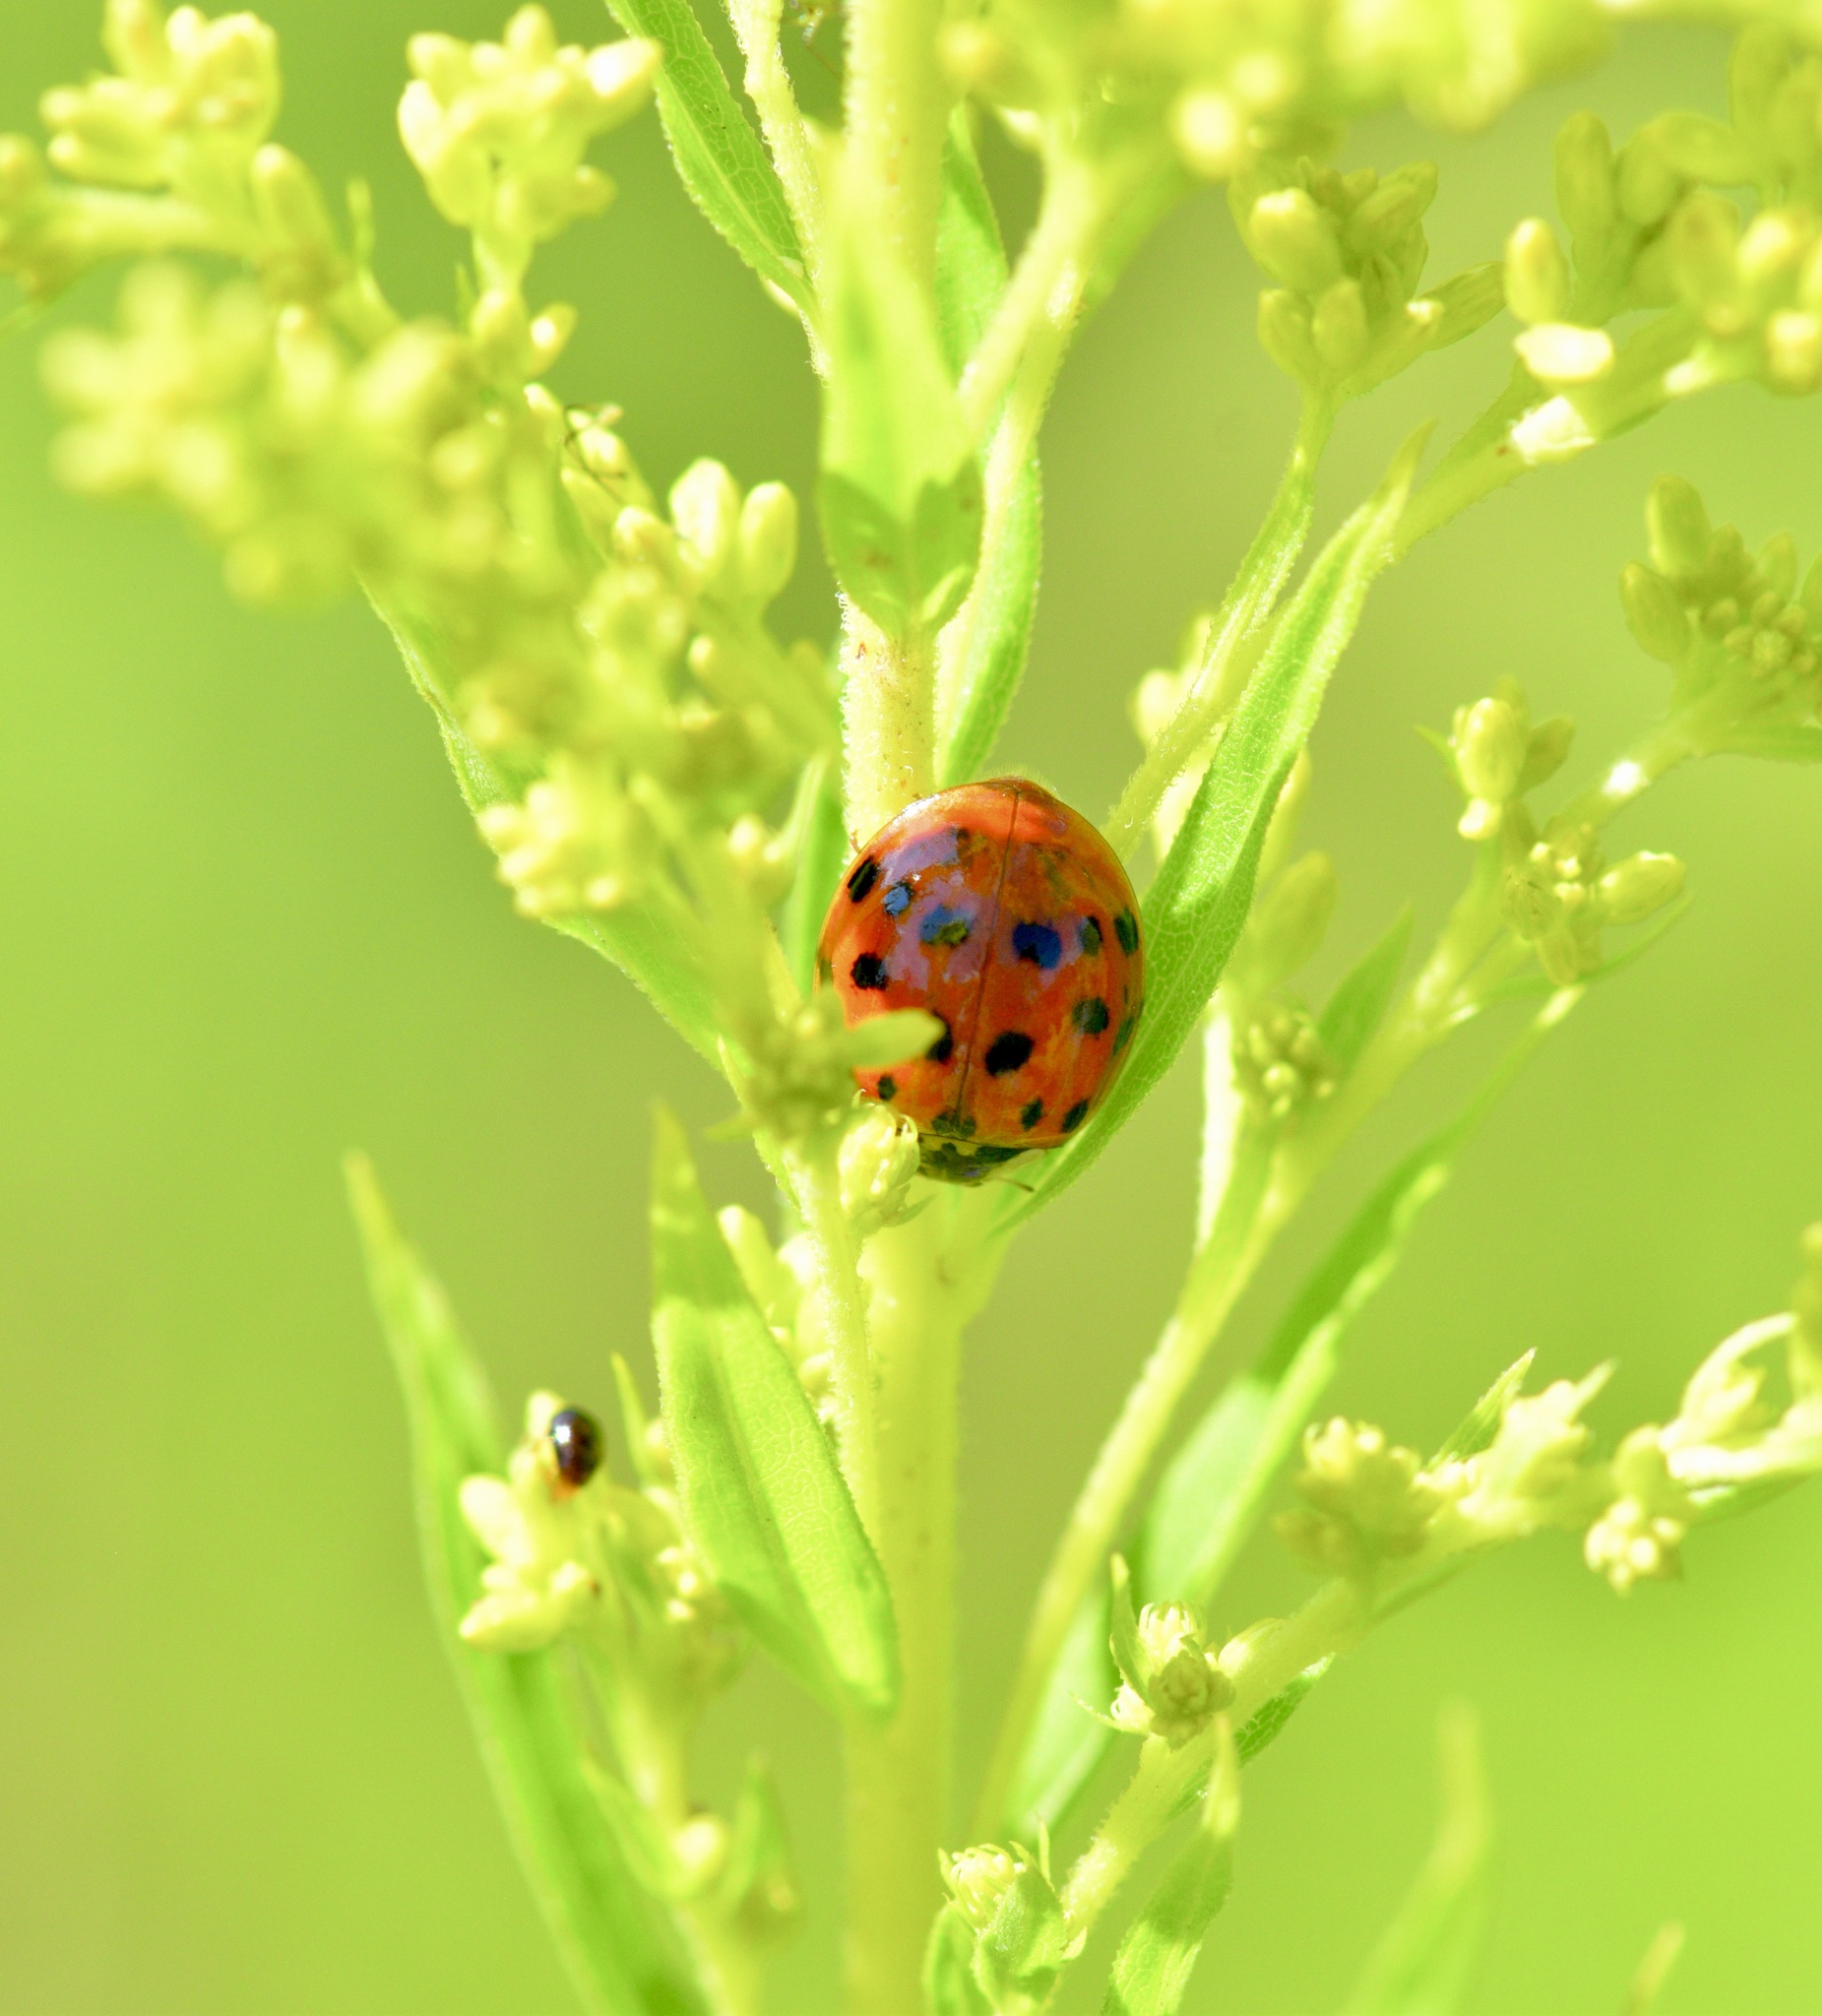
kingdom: Animalia
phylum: Arthropoda
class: Insecta
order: Coleoptera
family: Coccinellidae
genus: Harmonia
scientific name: Harmonia axyridis
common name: Harlequin ladybird
